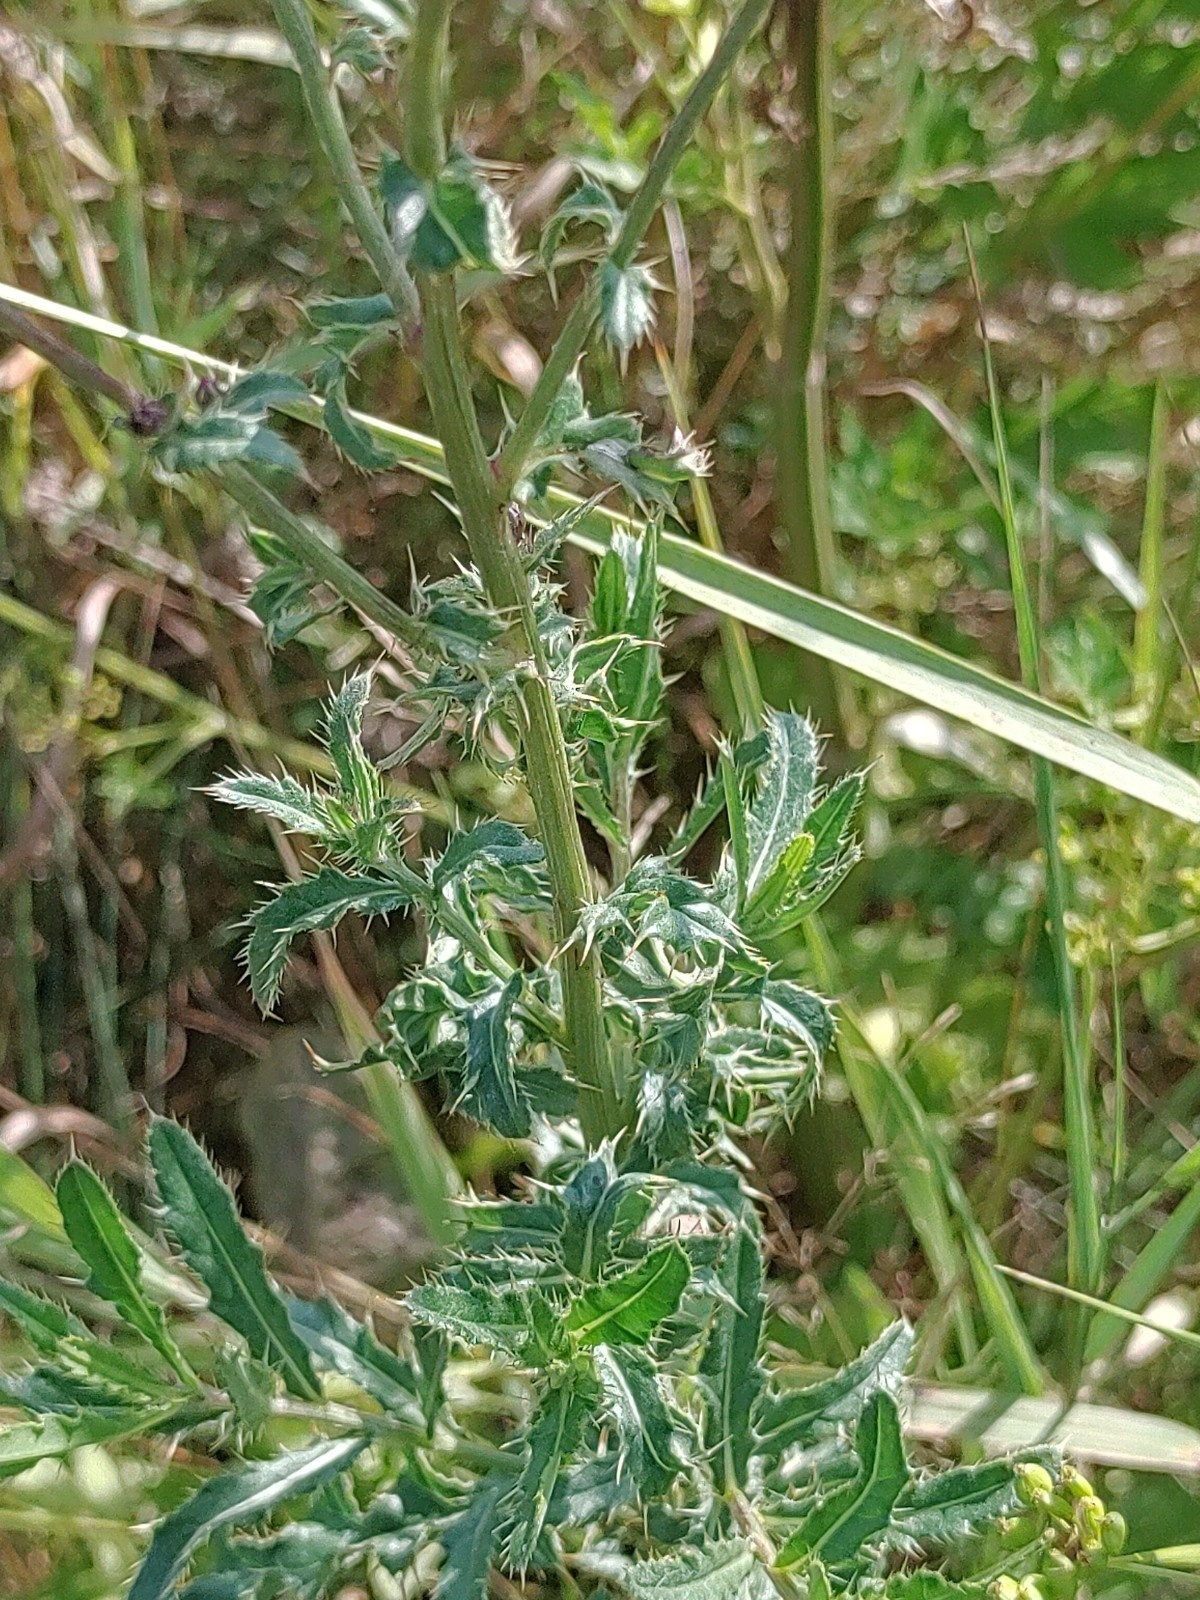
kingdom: Plantae
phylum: Tracheophyta
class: Magnoliopsida
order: Asterales
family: Asteraceae
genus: Cirsium
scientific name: Cirsium arvense
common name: Creeping thistle
